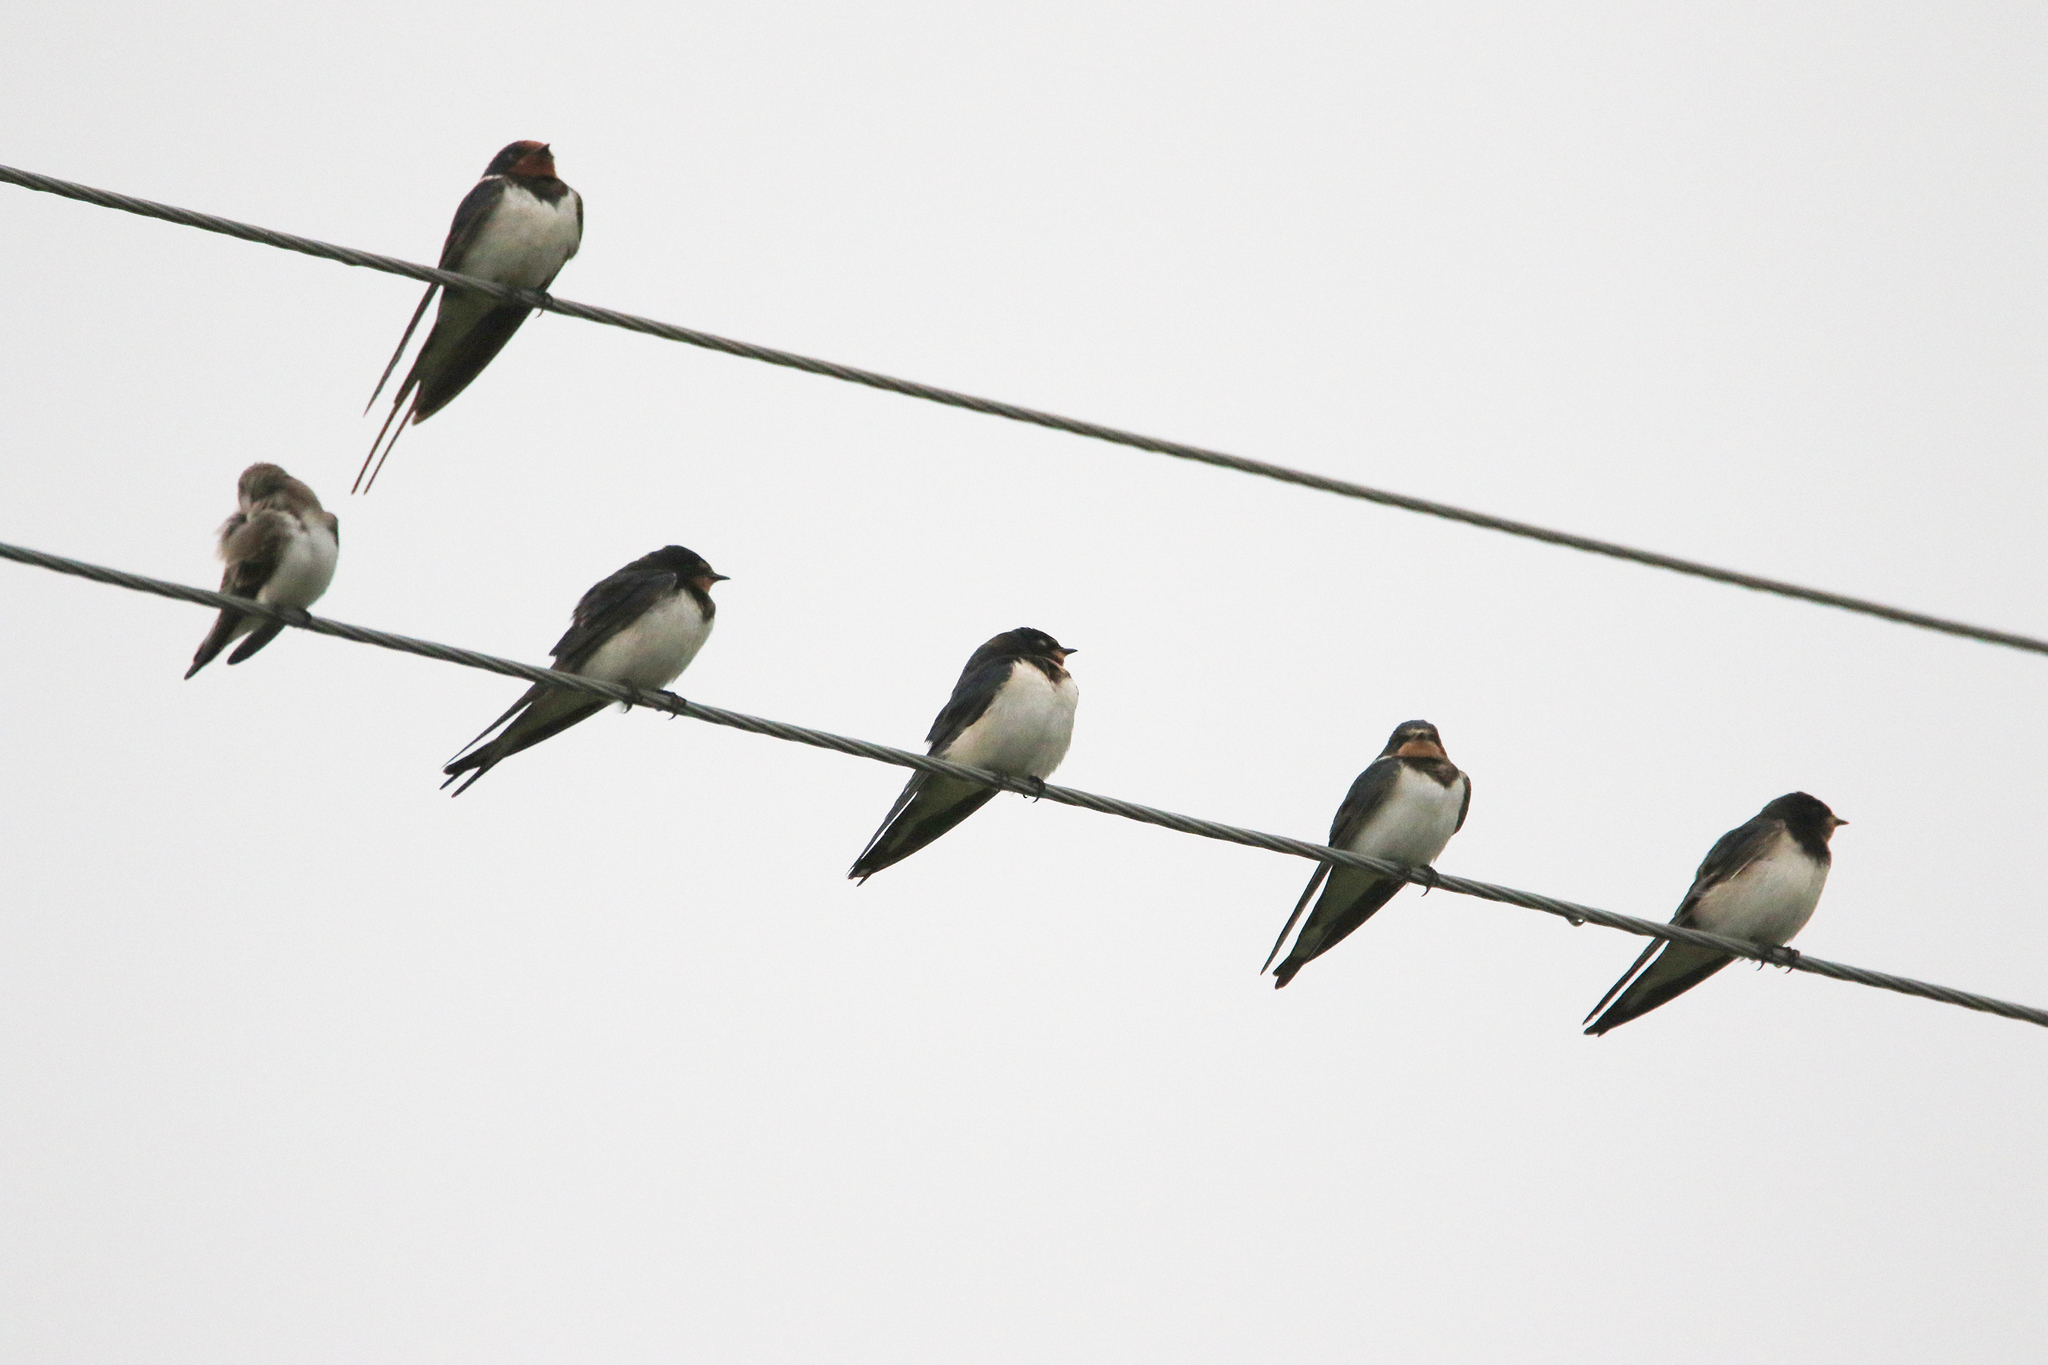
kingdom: Animalia
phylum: Chordata
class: Aves
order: Passeriformes
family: Hirundinidae
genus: Hirundo
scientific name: Hirundo rustica
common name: Barn swallow
